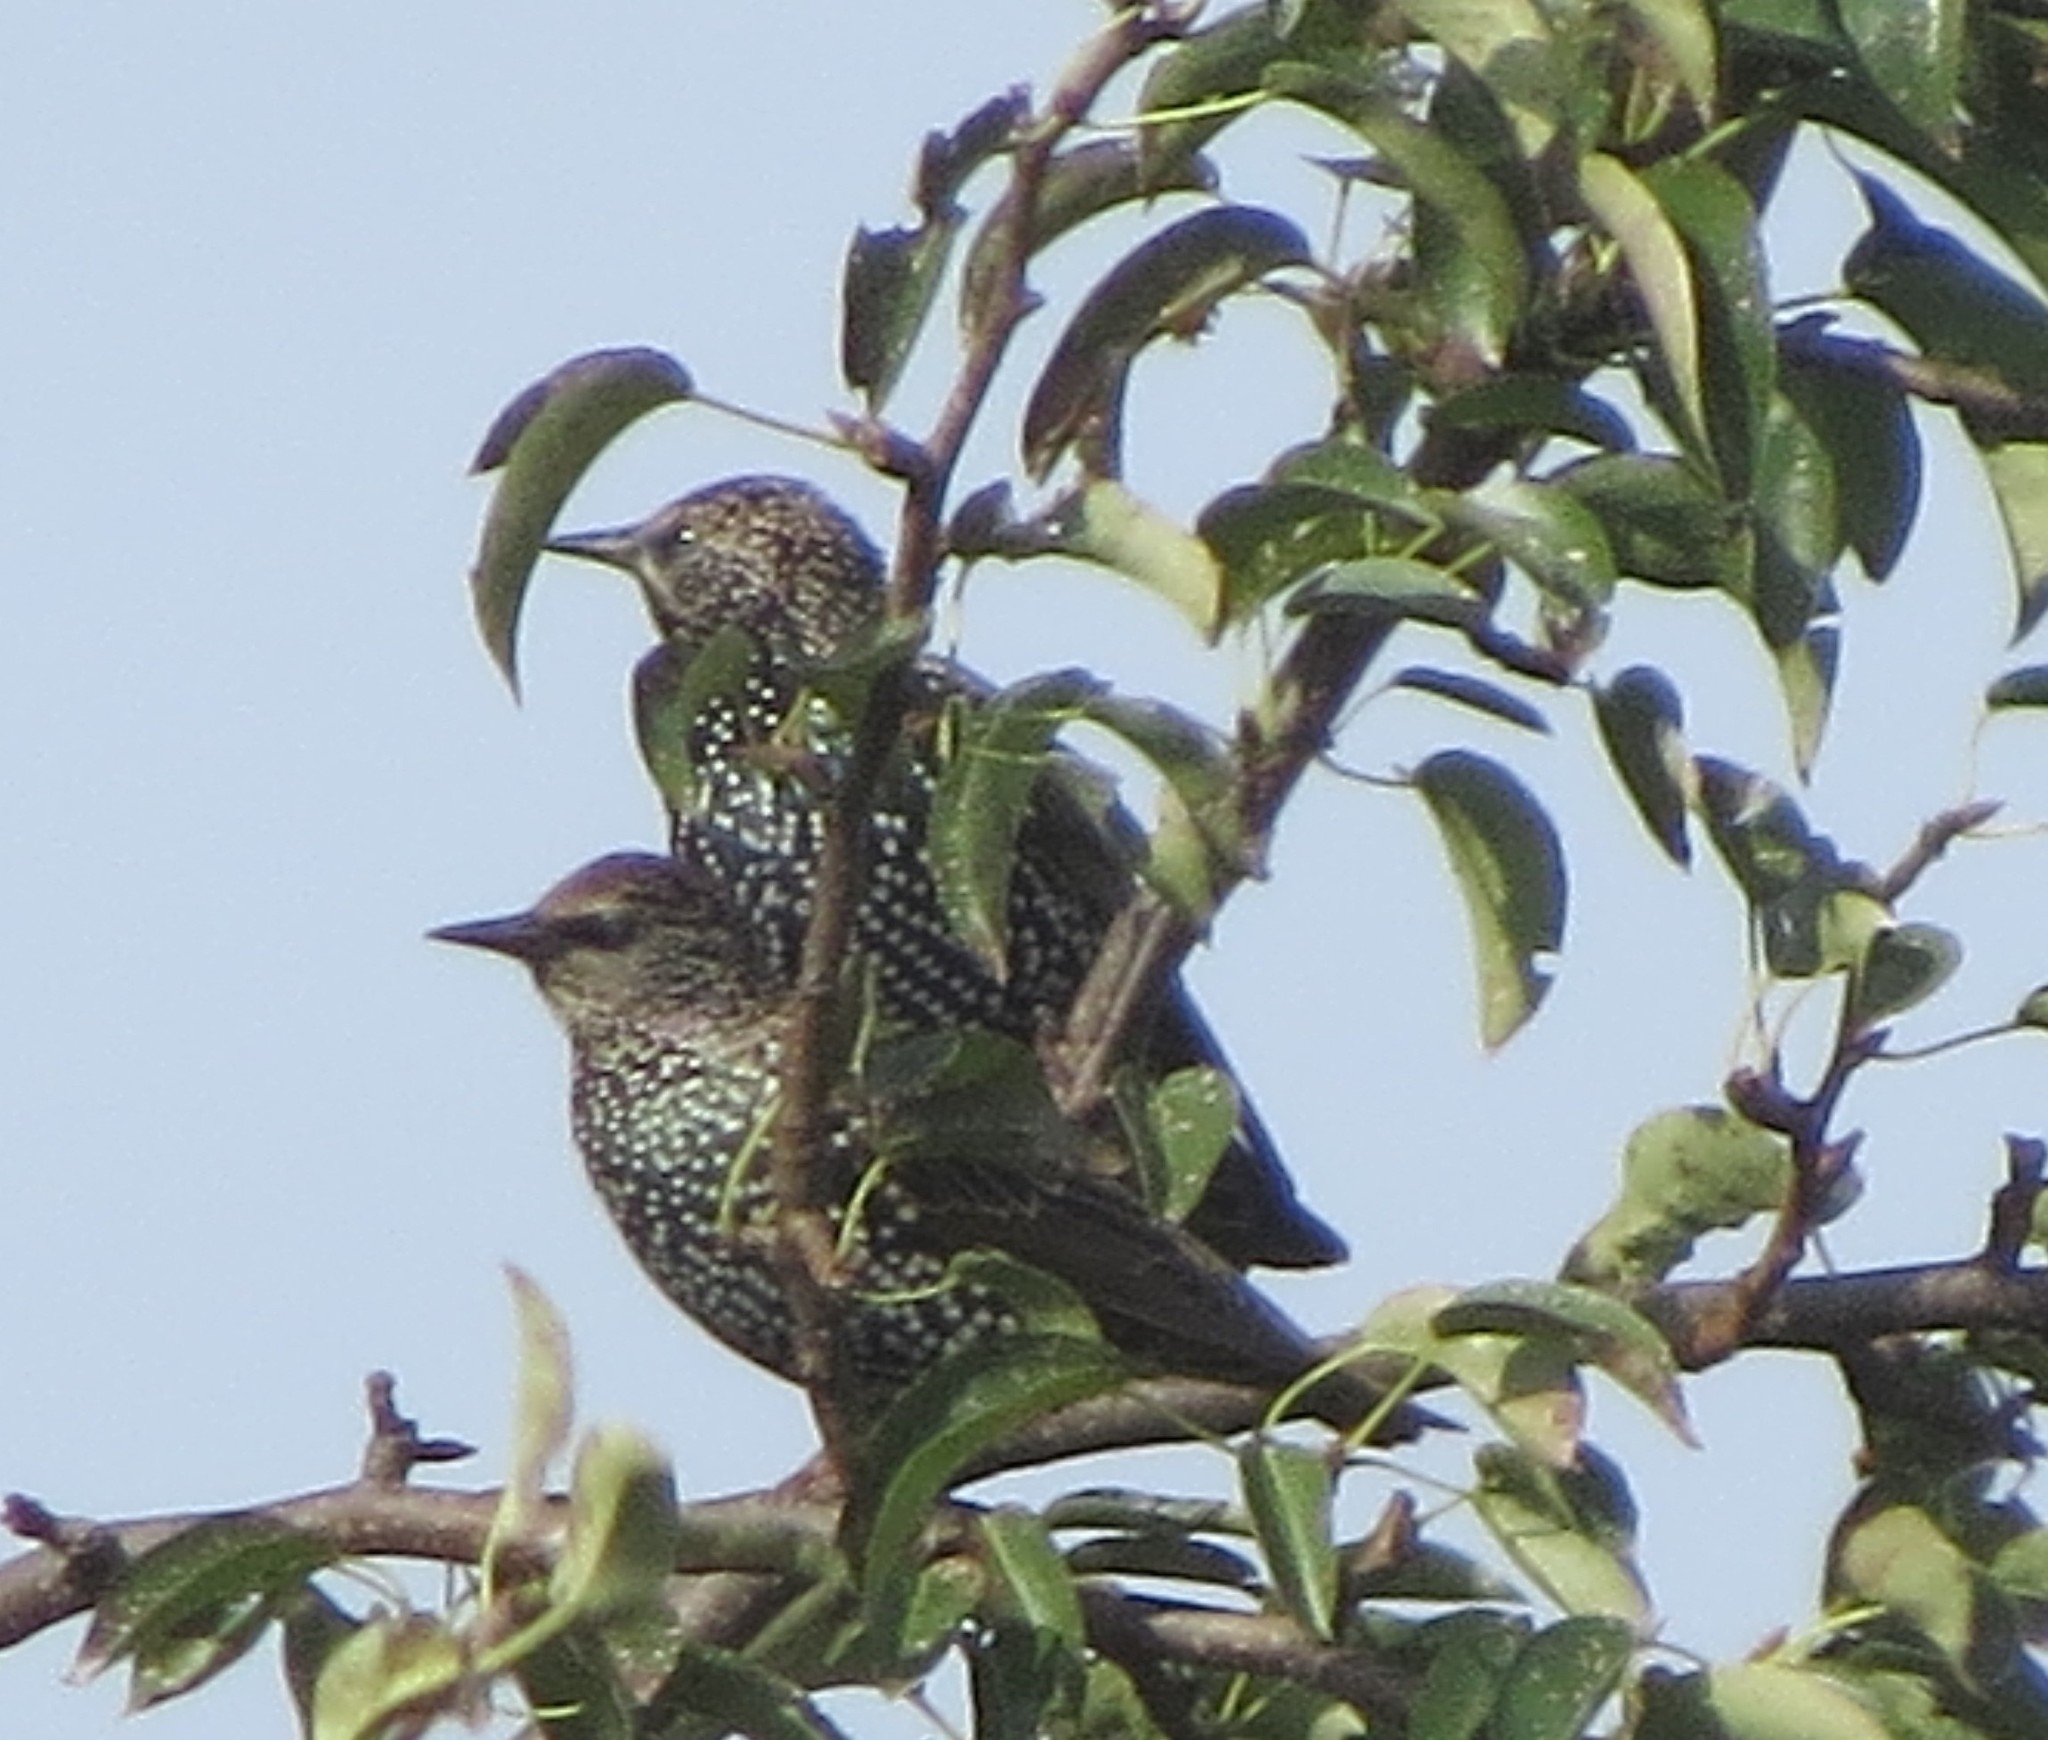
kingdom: Animalia
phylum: Chordata
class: Aves
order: Passeriformes
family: Sturnidae
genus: Sturnus
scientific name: Sturnus vulgaris
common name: Common starling
